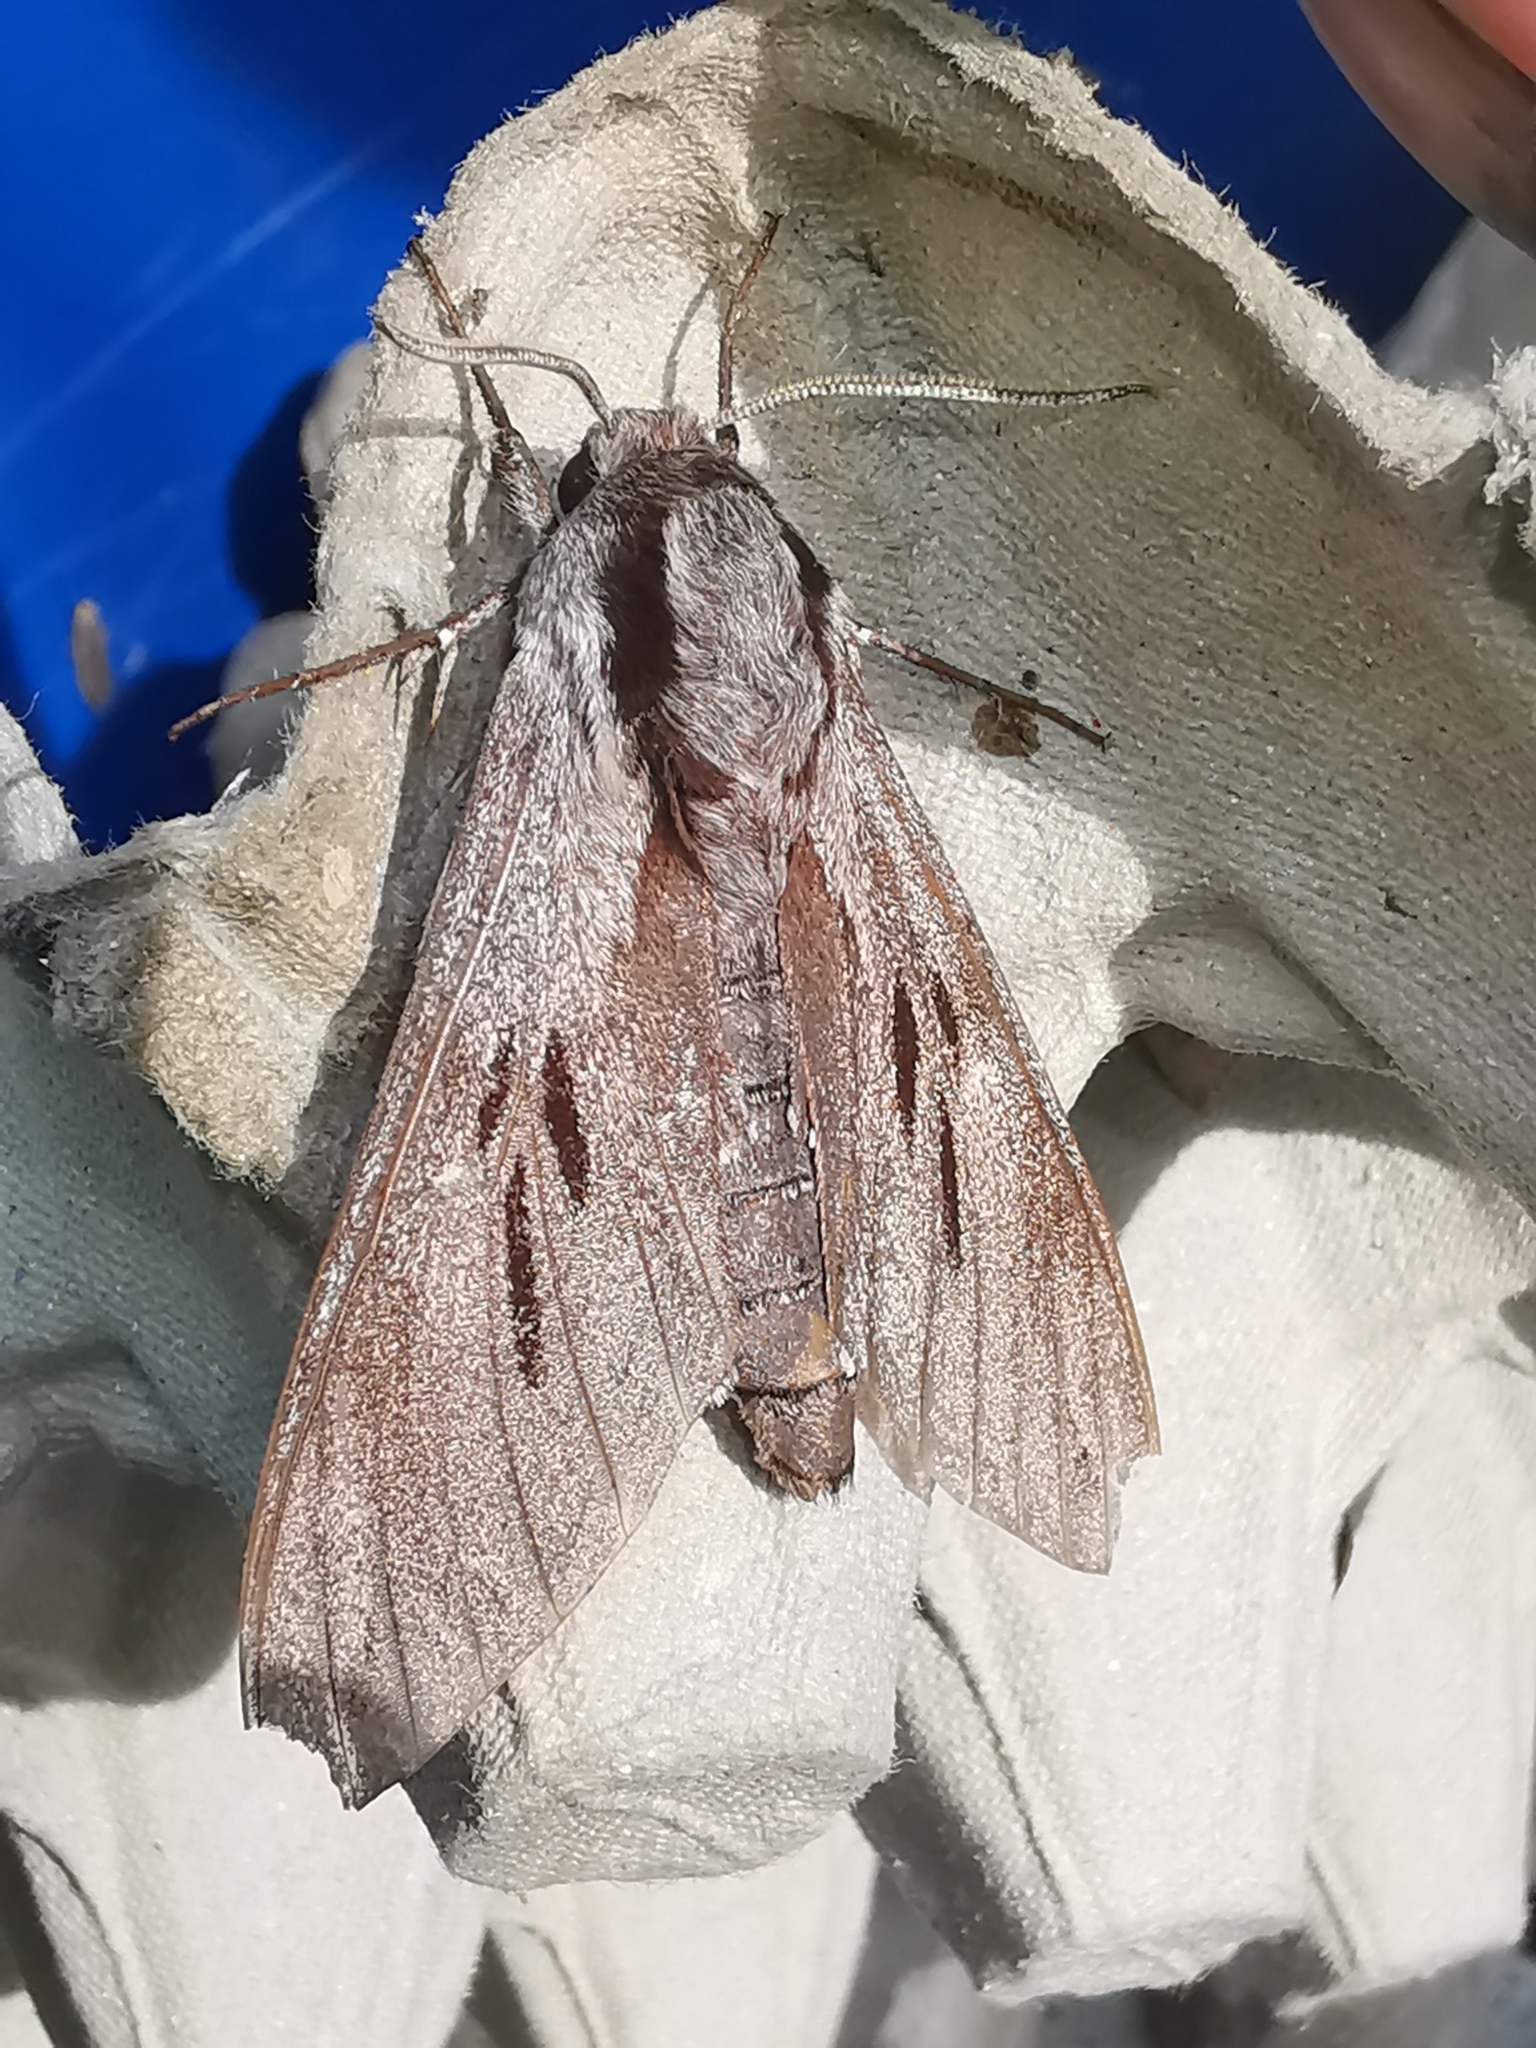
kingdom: Animalia
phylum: Arthropoda
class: Insecta
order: Lepidoptera
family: Sphingidae
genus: Sphinx
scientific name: Sphinx pinastri
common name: Pine hawk-moth
